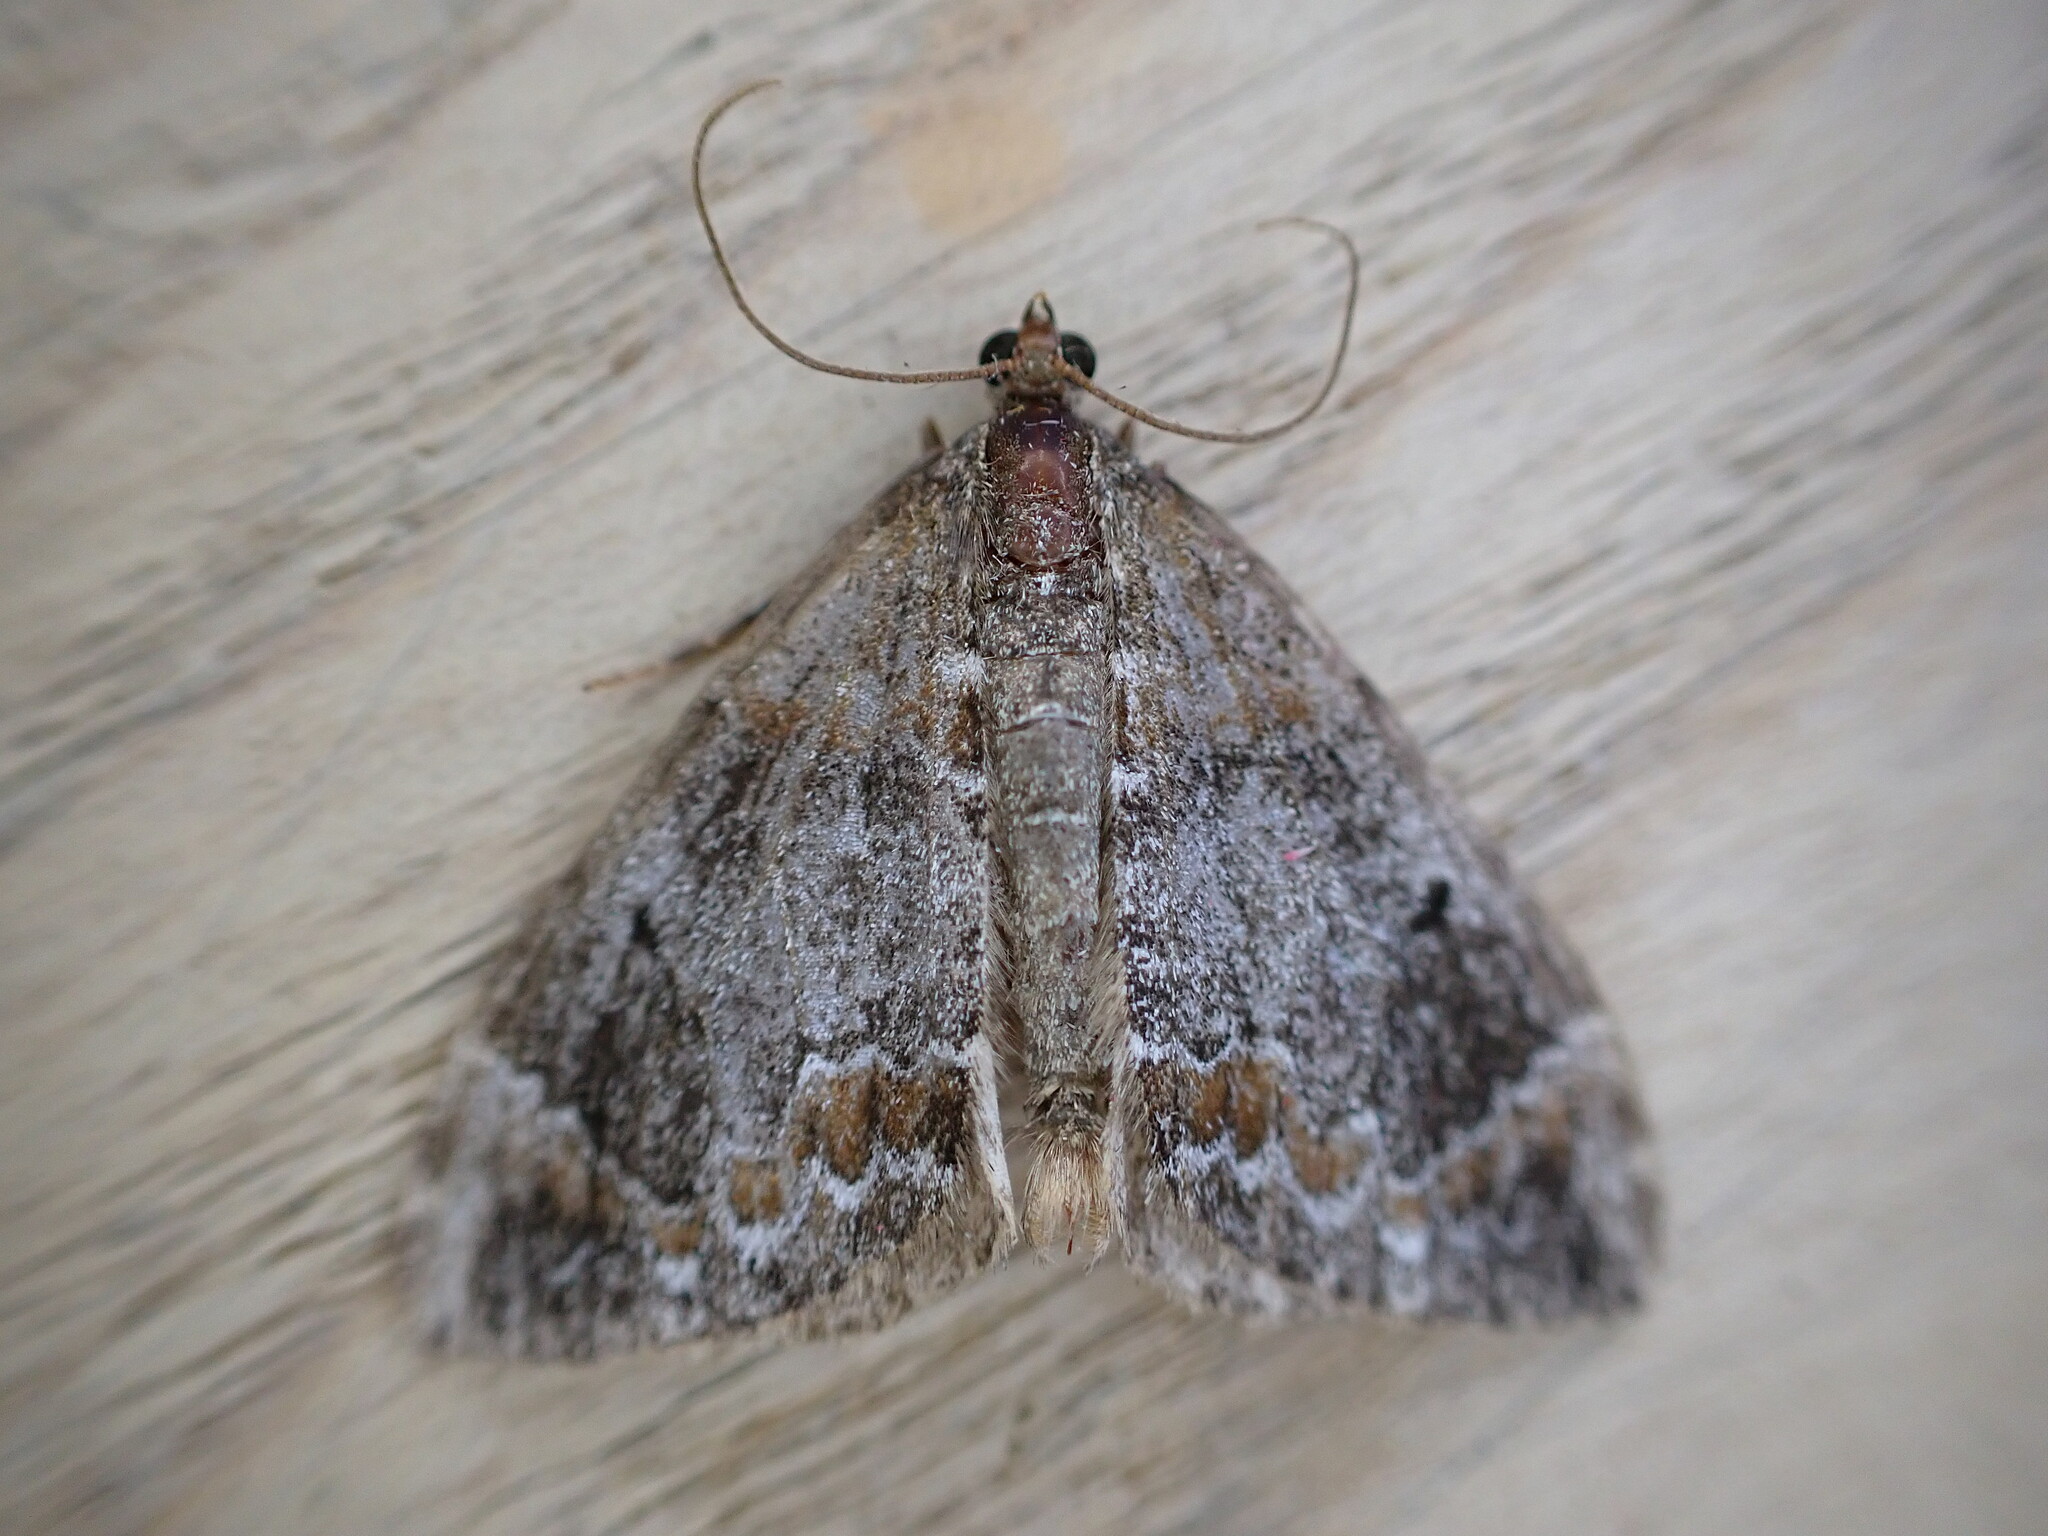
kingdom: Animalia
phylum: Arthropoda
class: Insecta
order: Lepidoptera
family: Geometridae
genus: Dysstroma
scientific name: Dysstroma truncata
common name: Common marbled carpet
